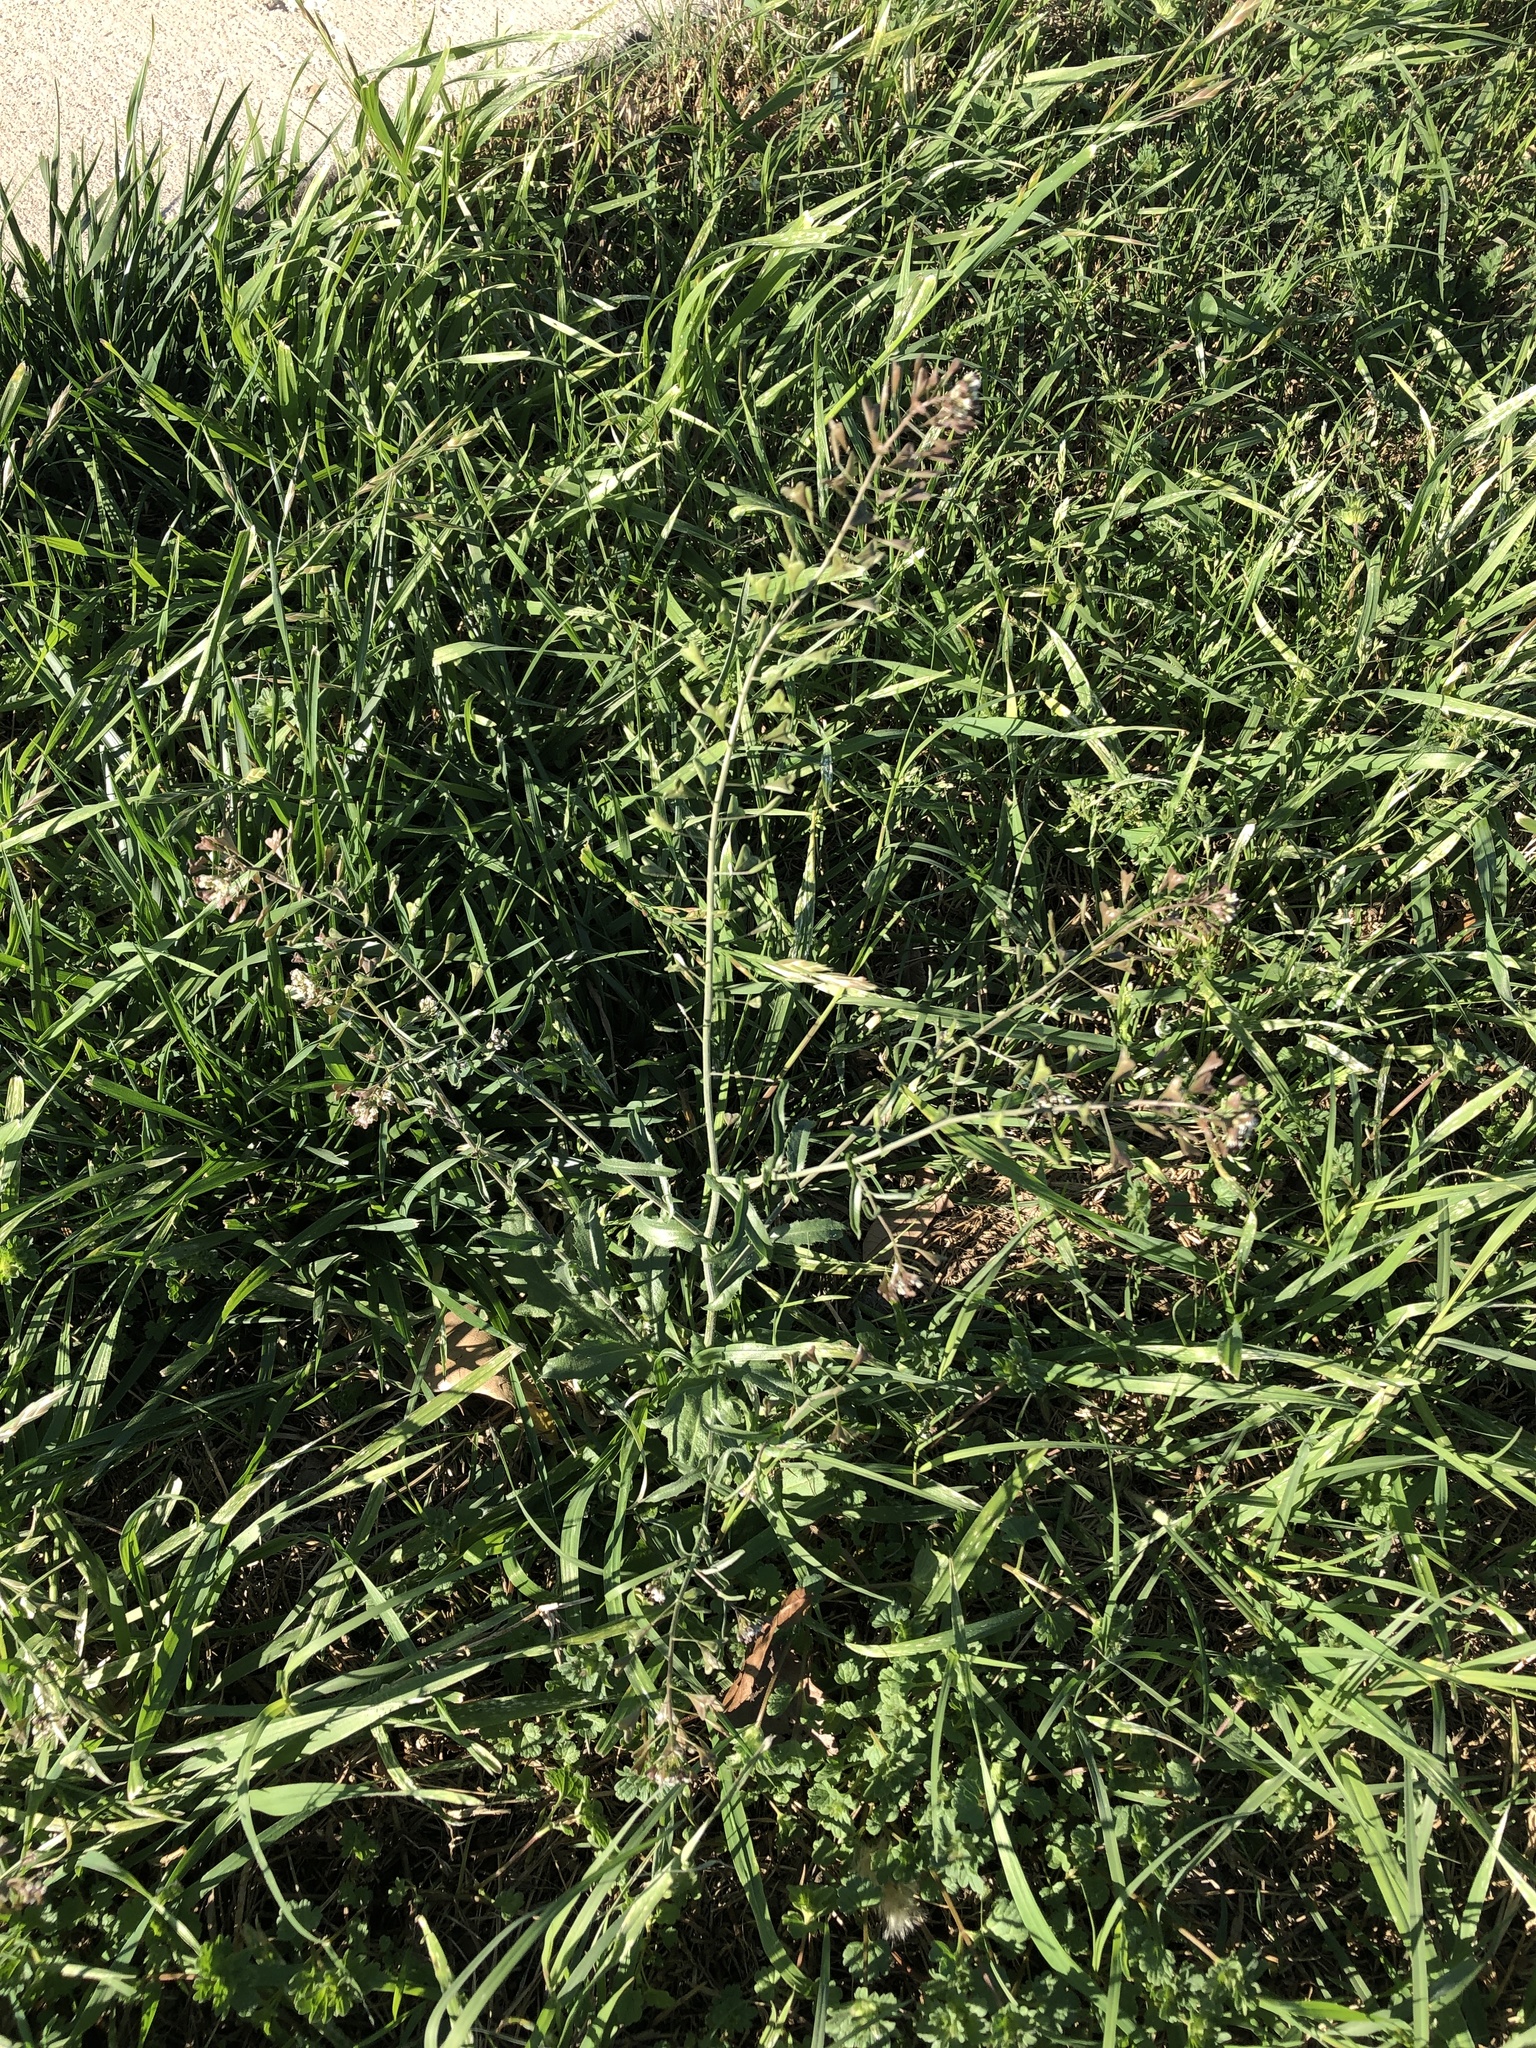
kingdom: Plantae
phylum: Tracheophyta
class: Magnoliopsida
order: Brassicales
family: Brassicaceae
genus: Capsella
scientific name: Capsella bursa-pastoris
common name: Shepherd's purse
